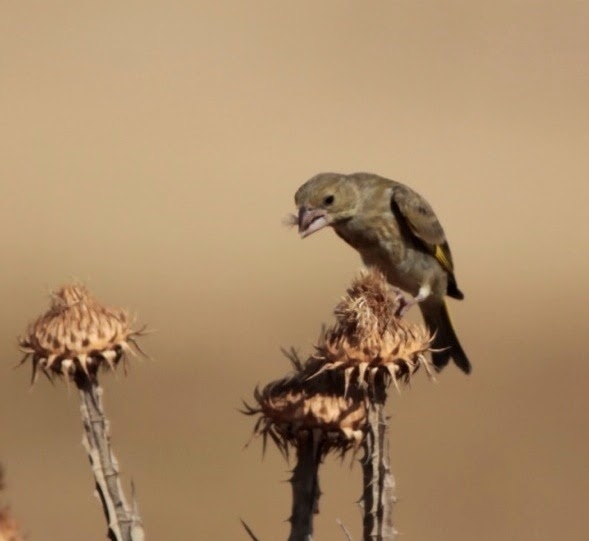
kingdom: Plantae
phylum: Tracheophyta
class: Liliopsida
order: Poales
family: Poaceae
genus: Chloris
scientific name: Chloris chloris
